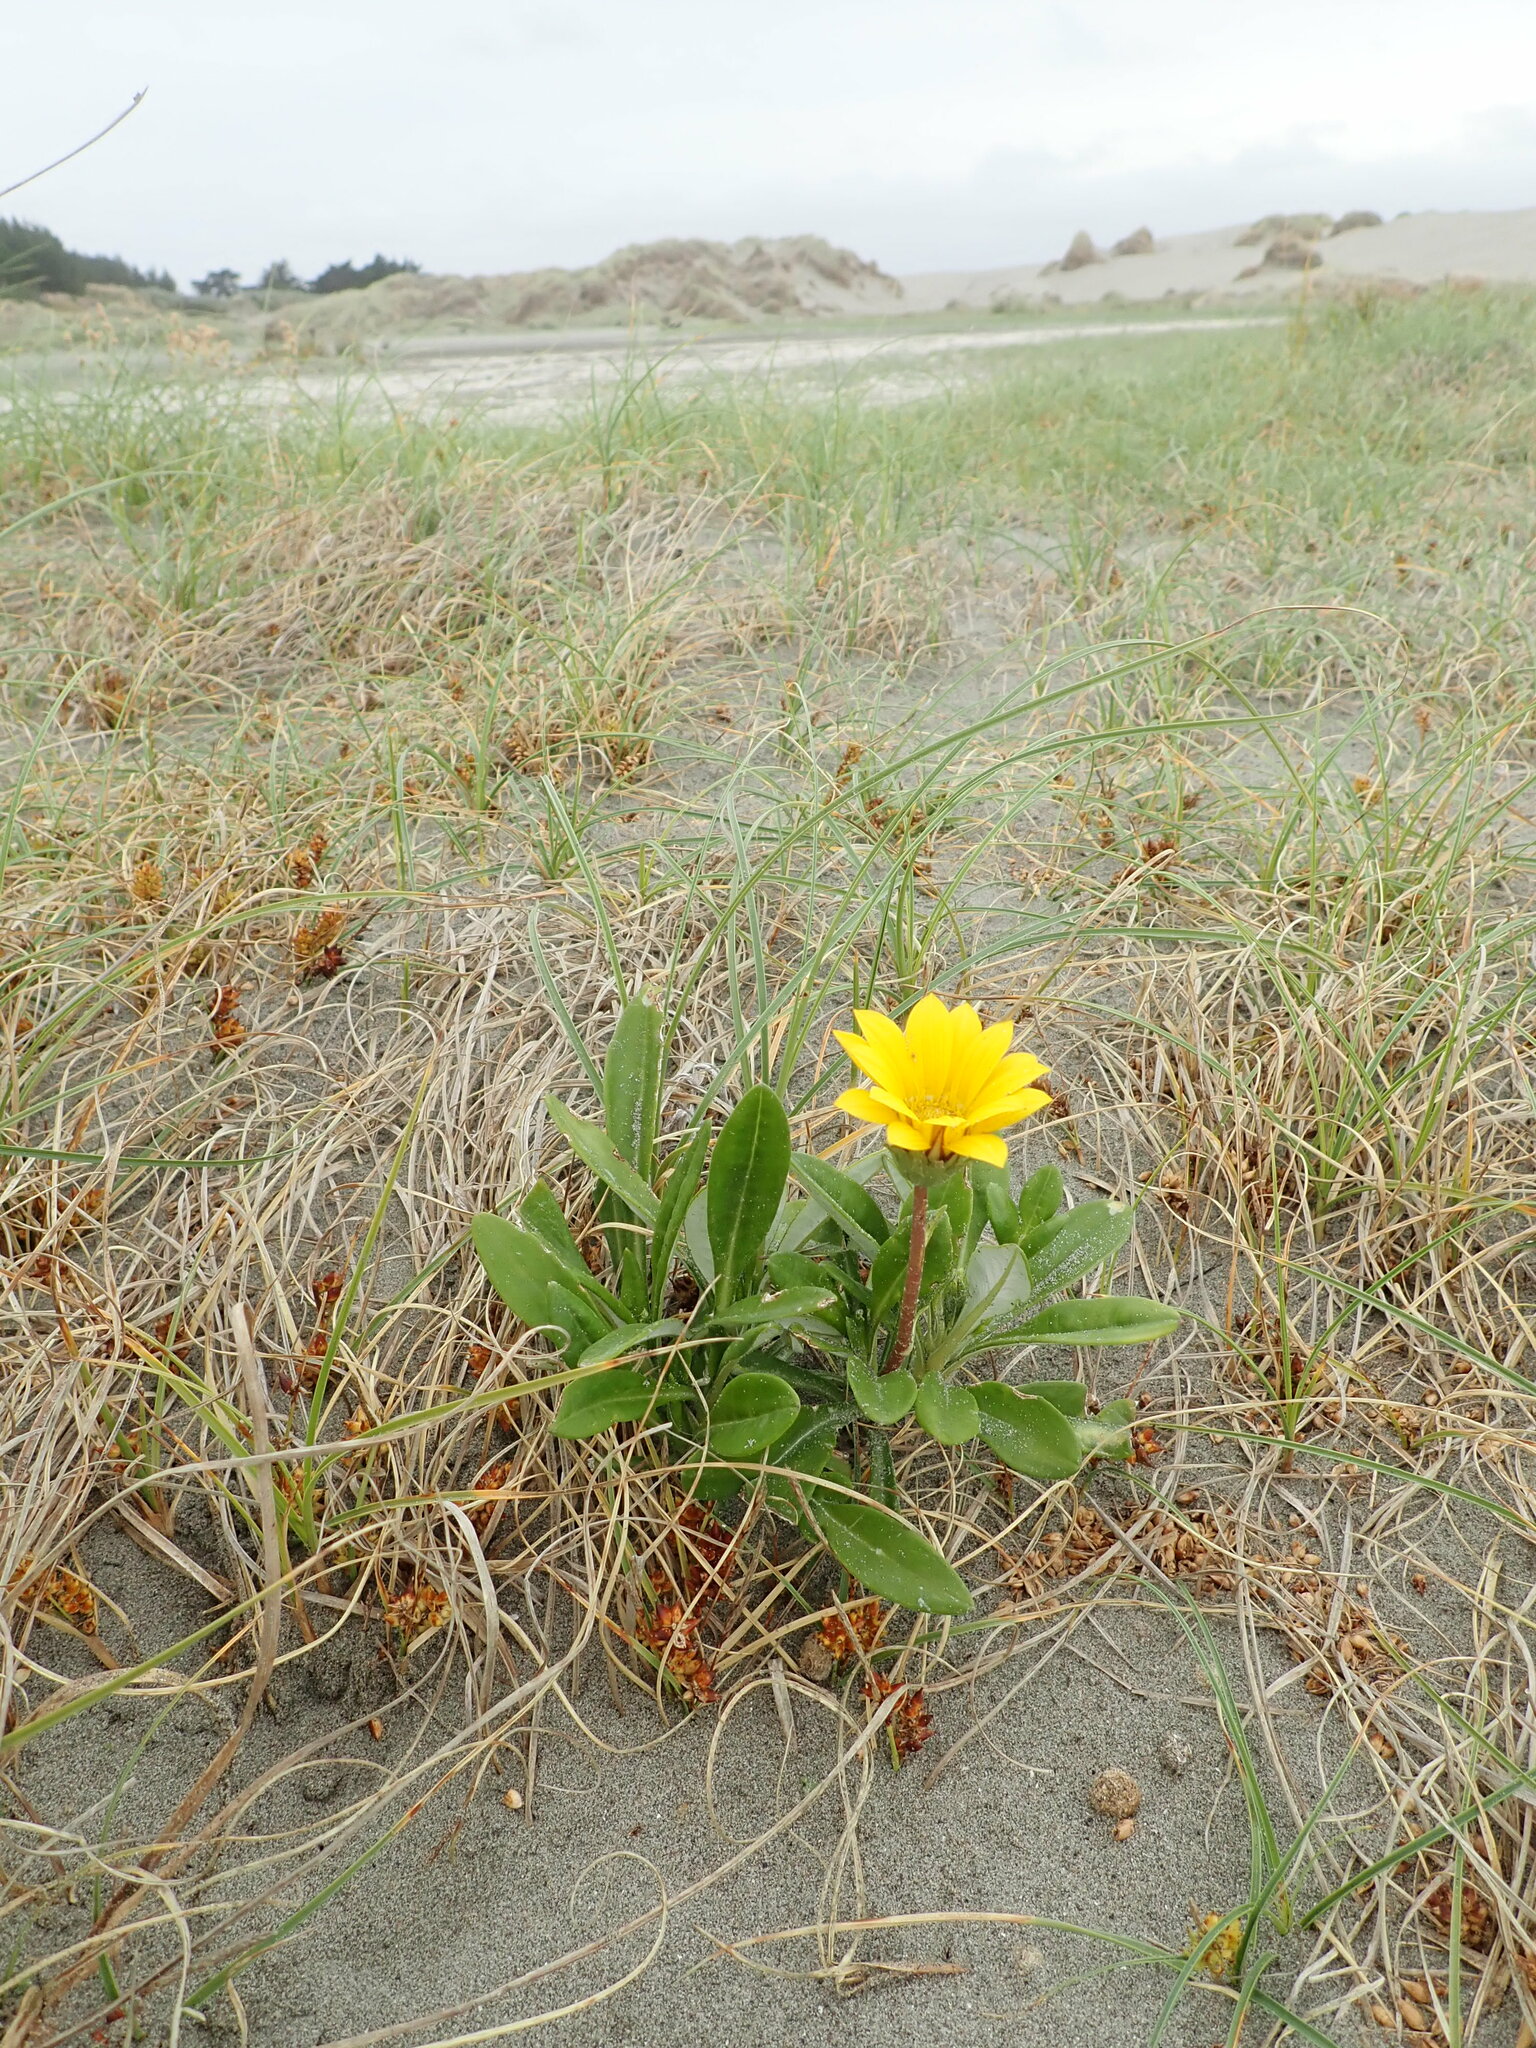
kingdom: Plantae
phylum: Tracheophyta
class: Magnoliopsida
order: Asterales
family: Asteraceae
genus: Gazania
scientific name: Gazania splendens
